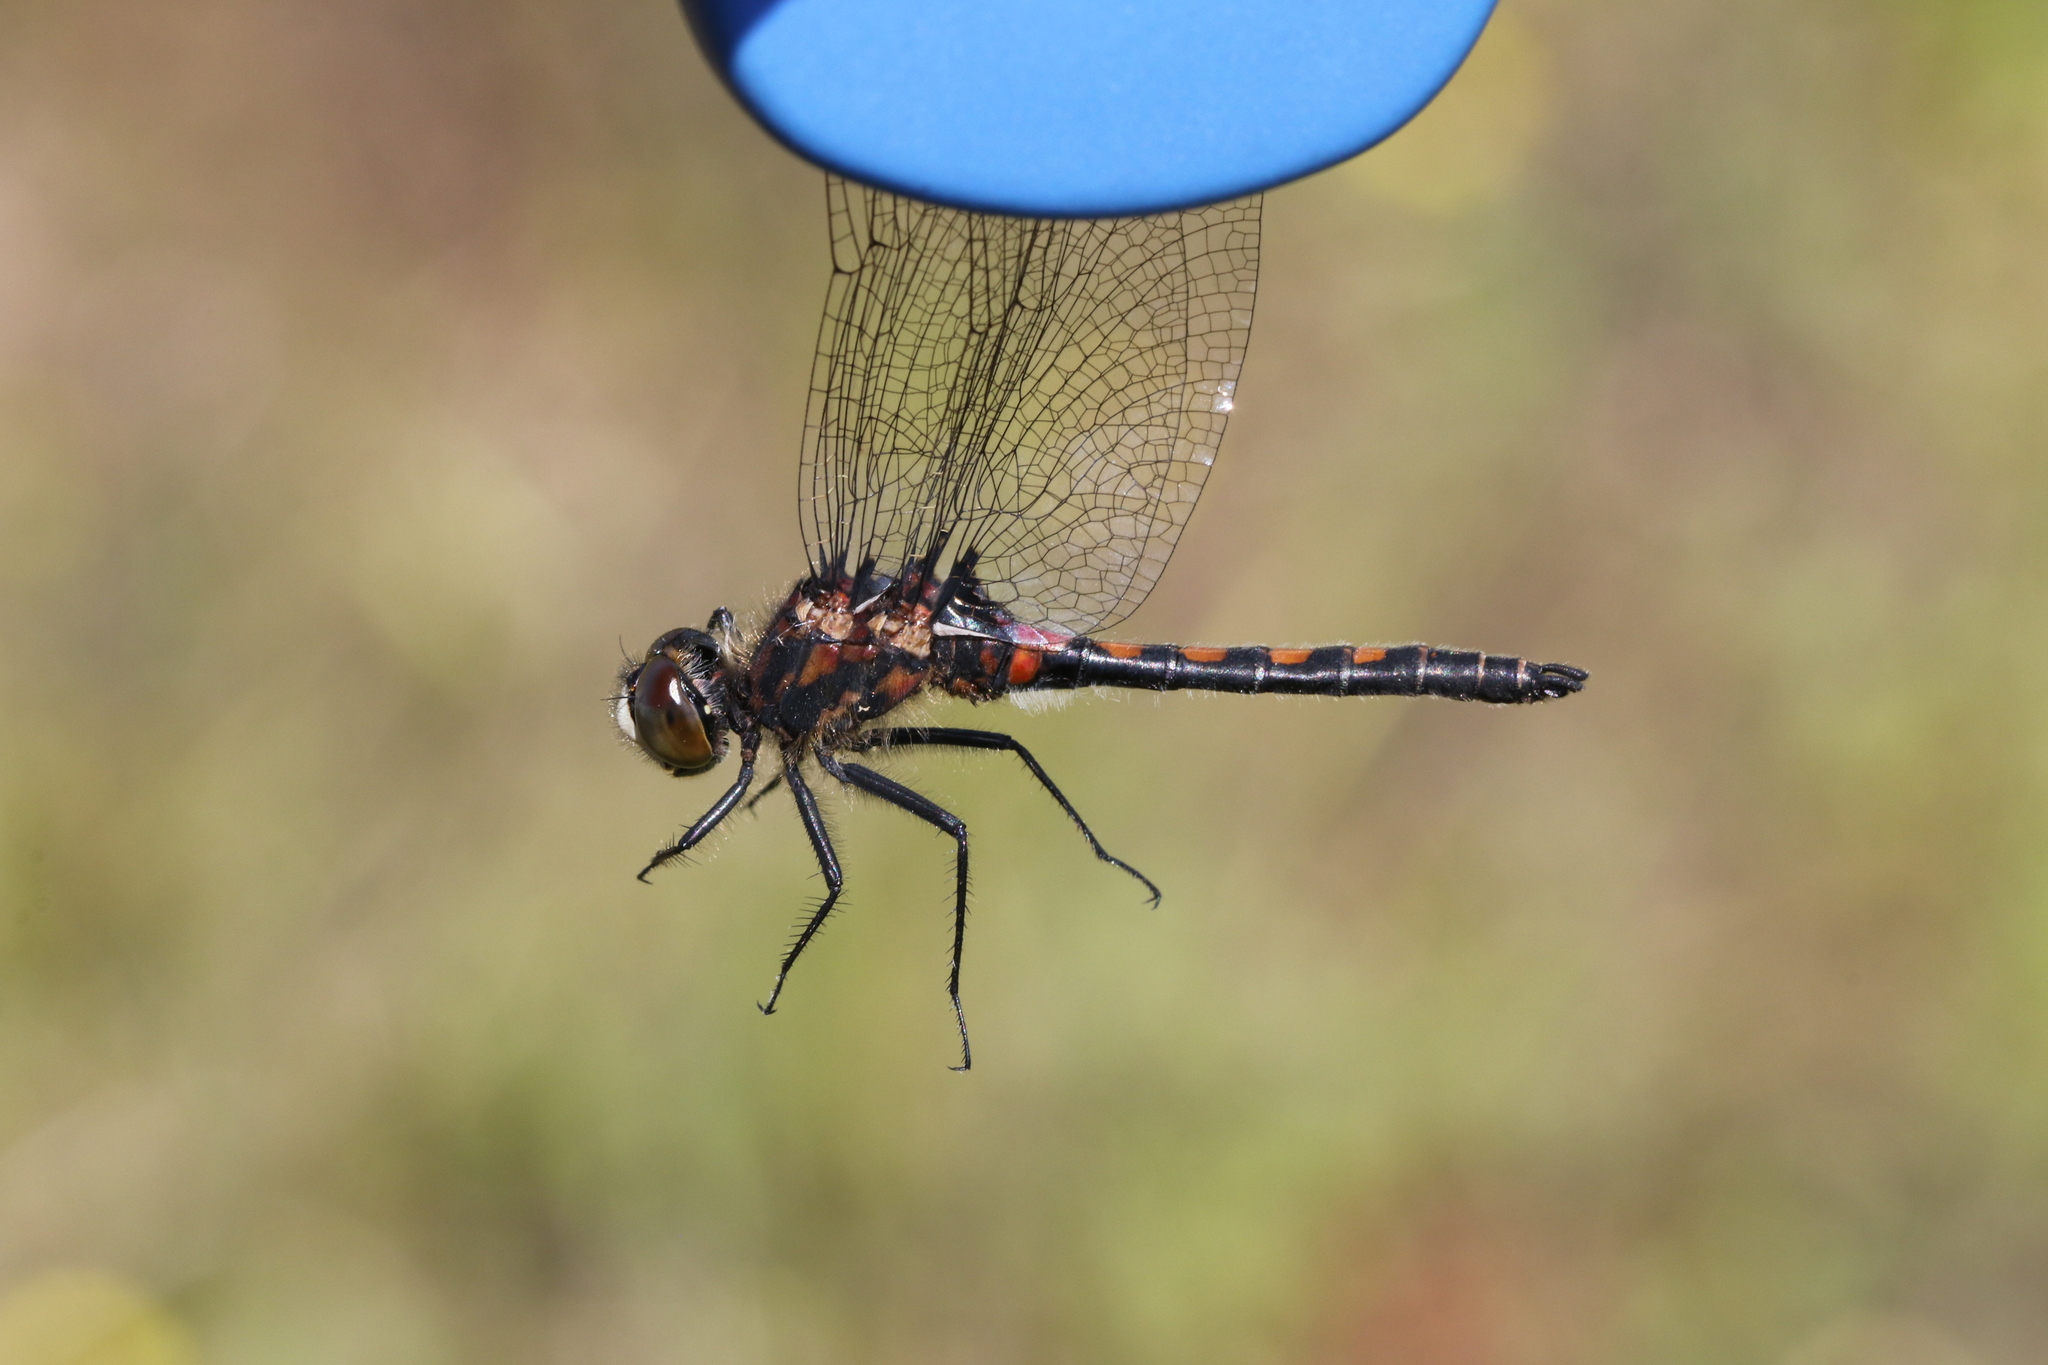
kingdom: Animalia
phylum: Arthropoda
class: Insecta
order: Odonata
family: Libellulidae
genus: Leucorrhinia
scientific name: Leucorrhinia hudsonica
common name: Hudsonian whiteface
